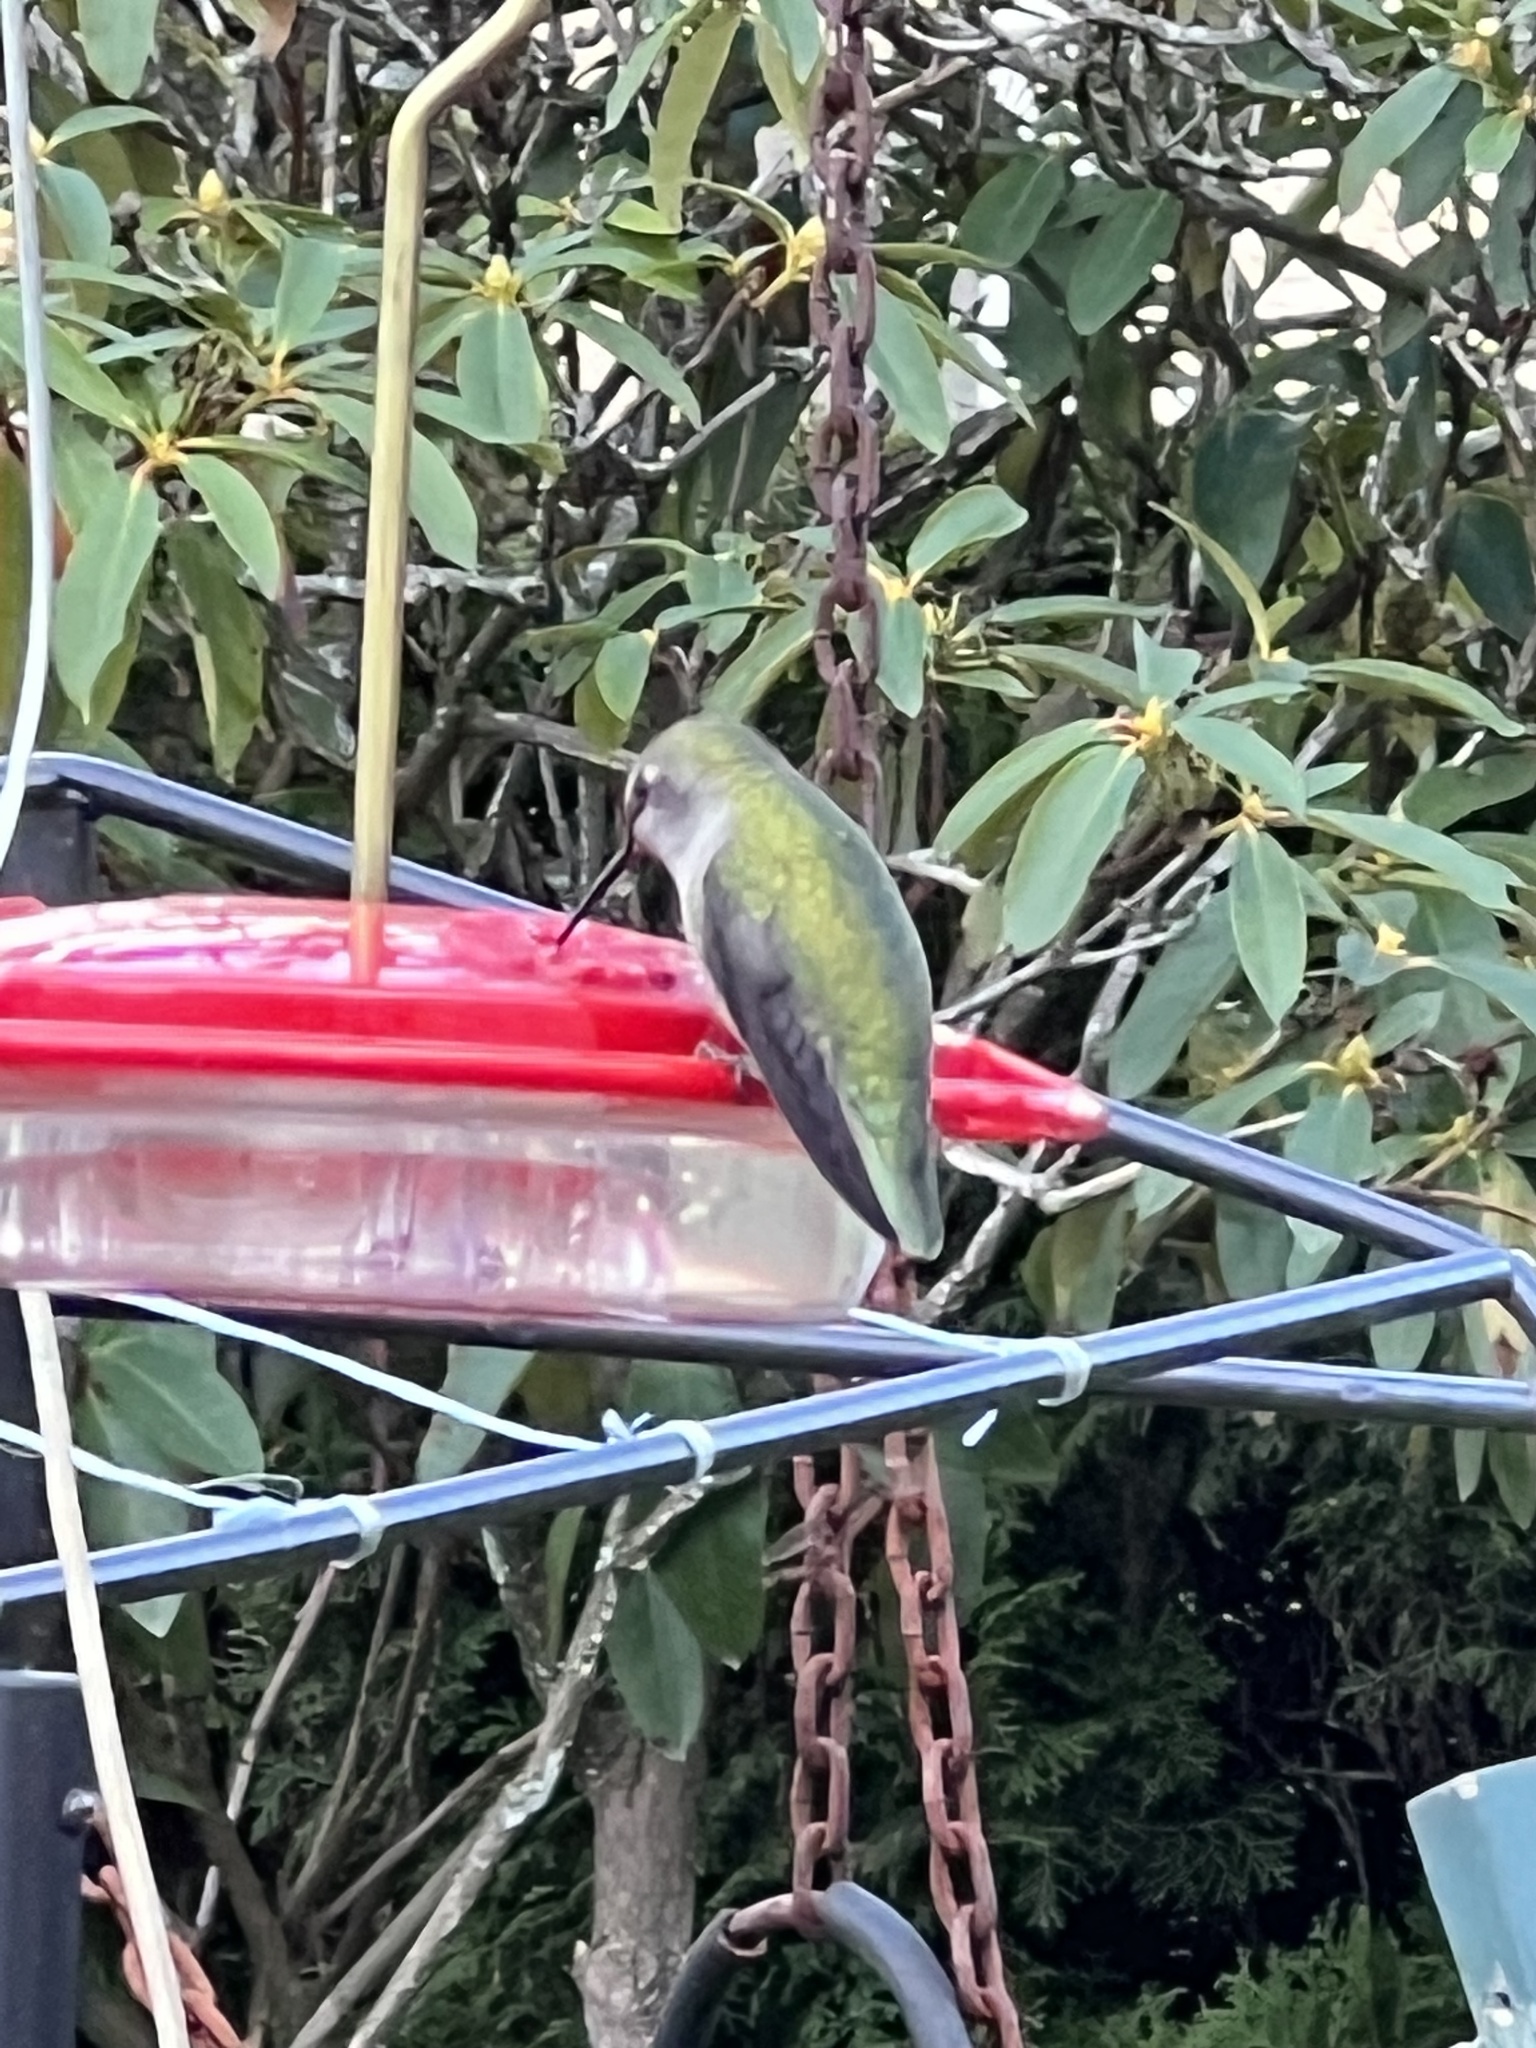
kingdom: Animalia
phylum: Chordata
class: Aves
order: Apodiformes
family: Trochilidae
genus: Calypte
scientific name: Calypte anna
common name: Anna's hummingbird
